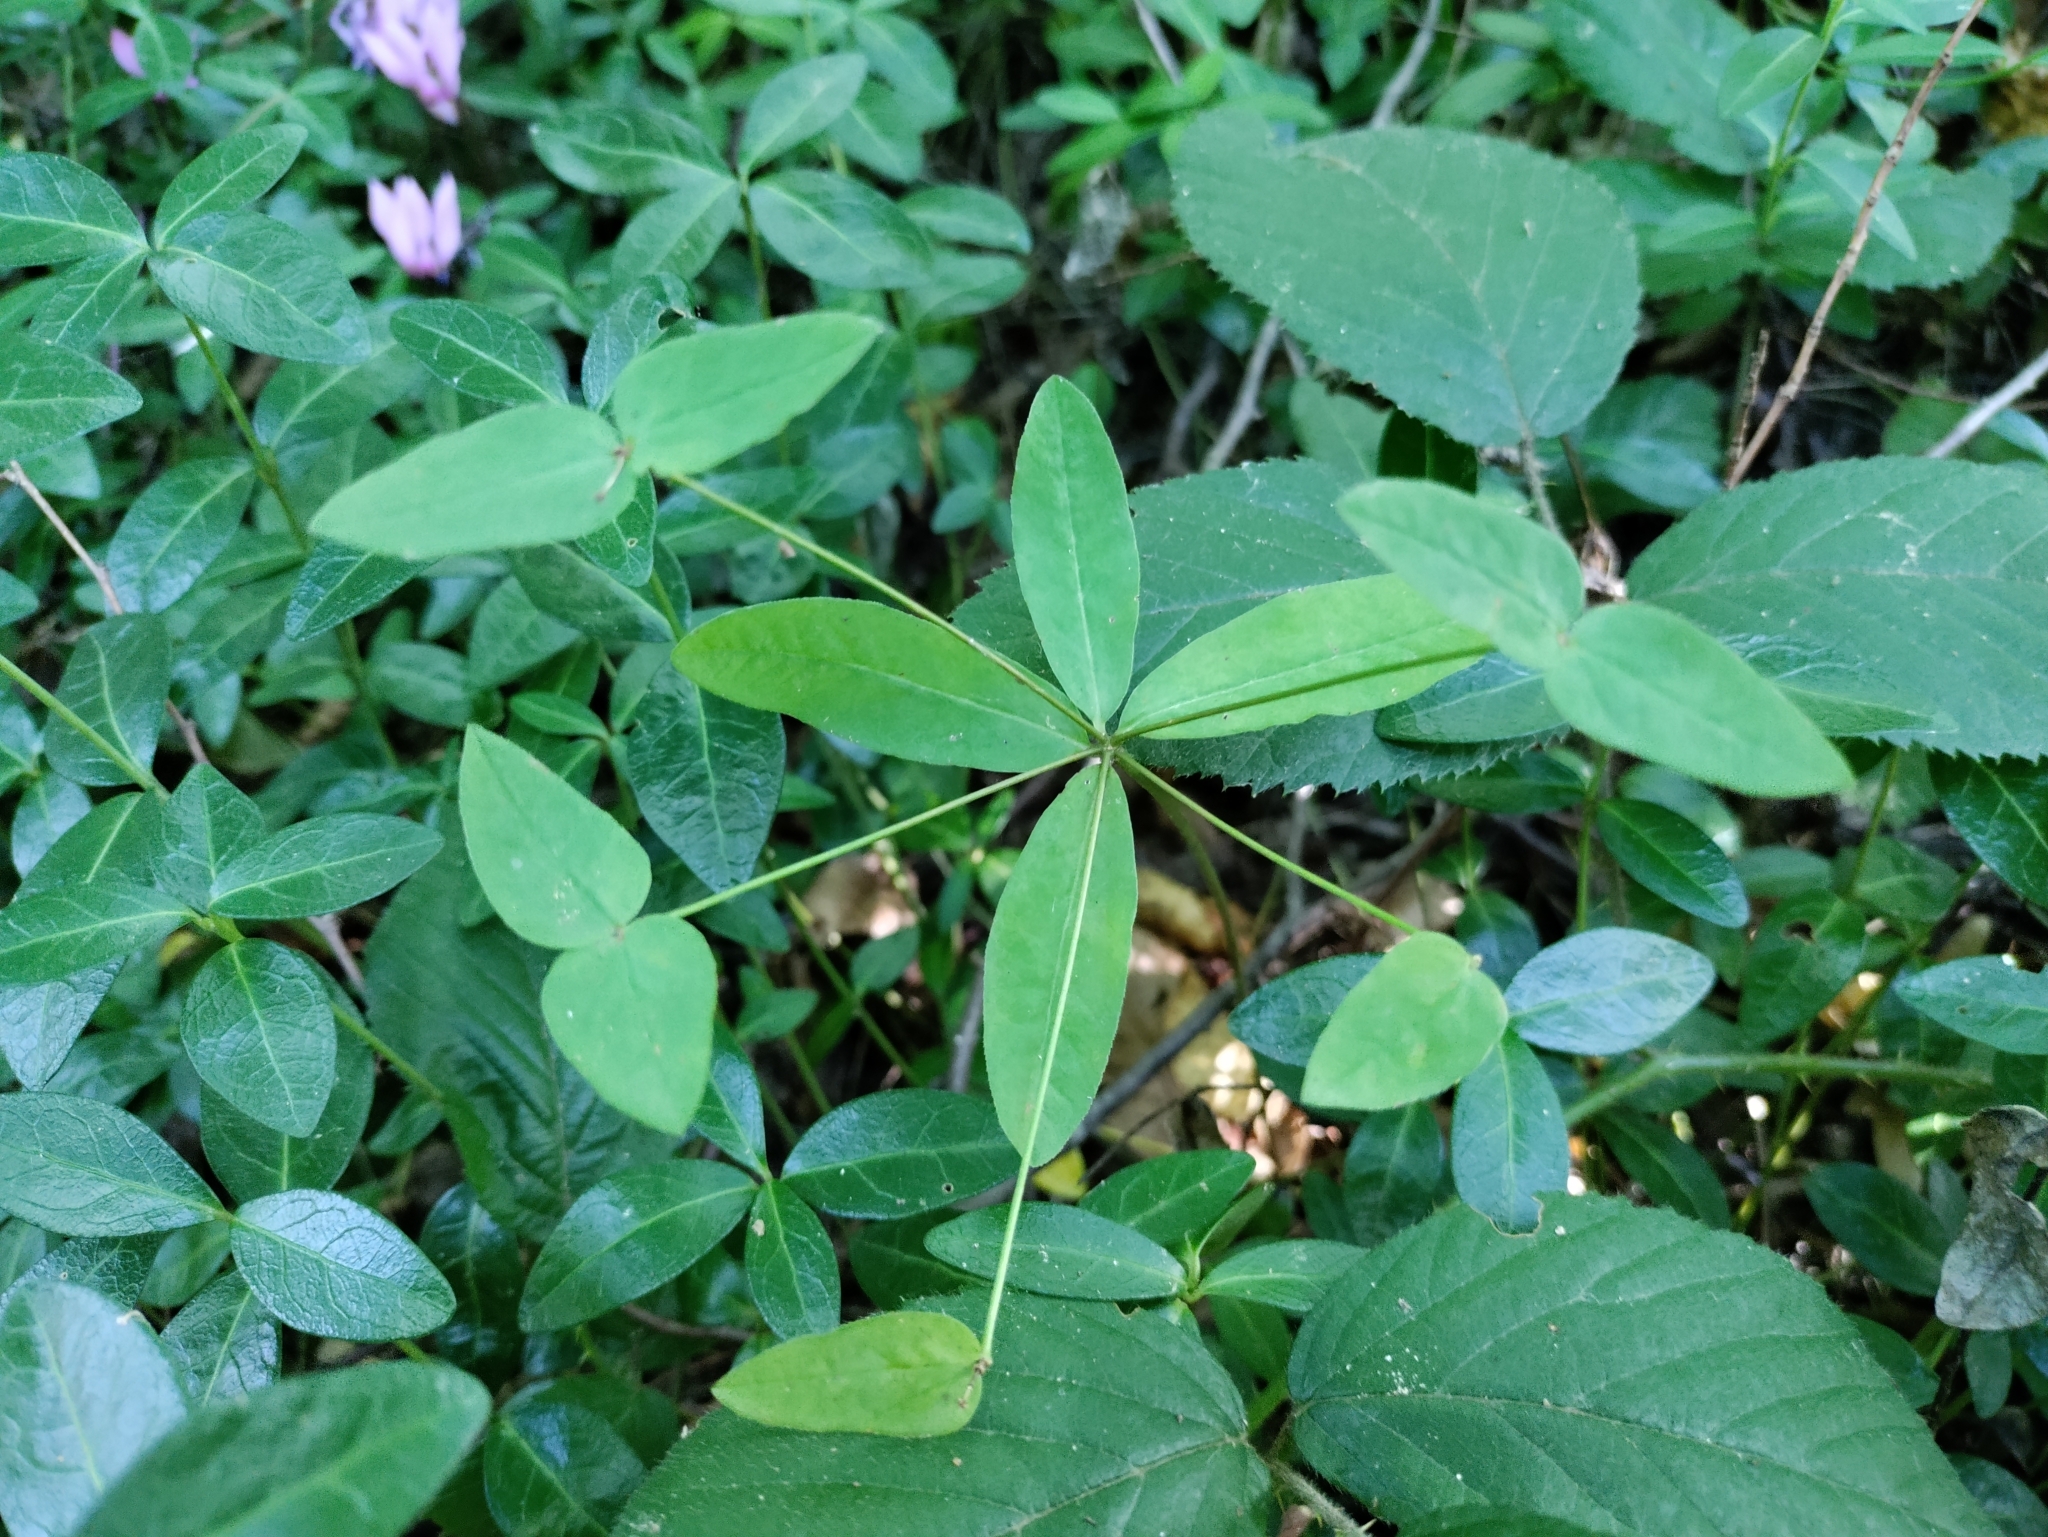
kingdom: Plantae
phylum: Tracheophyta
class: Magnoliopsida
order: Malpighiales
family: Euphorbiaceae
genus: Euphorbia
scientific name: Euphorbia dulcis
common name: Sweet spurge
